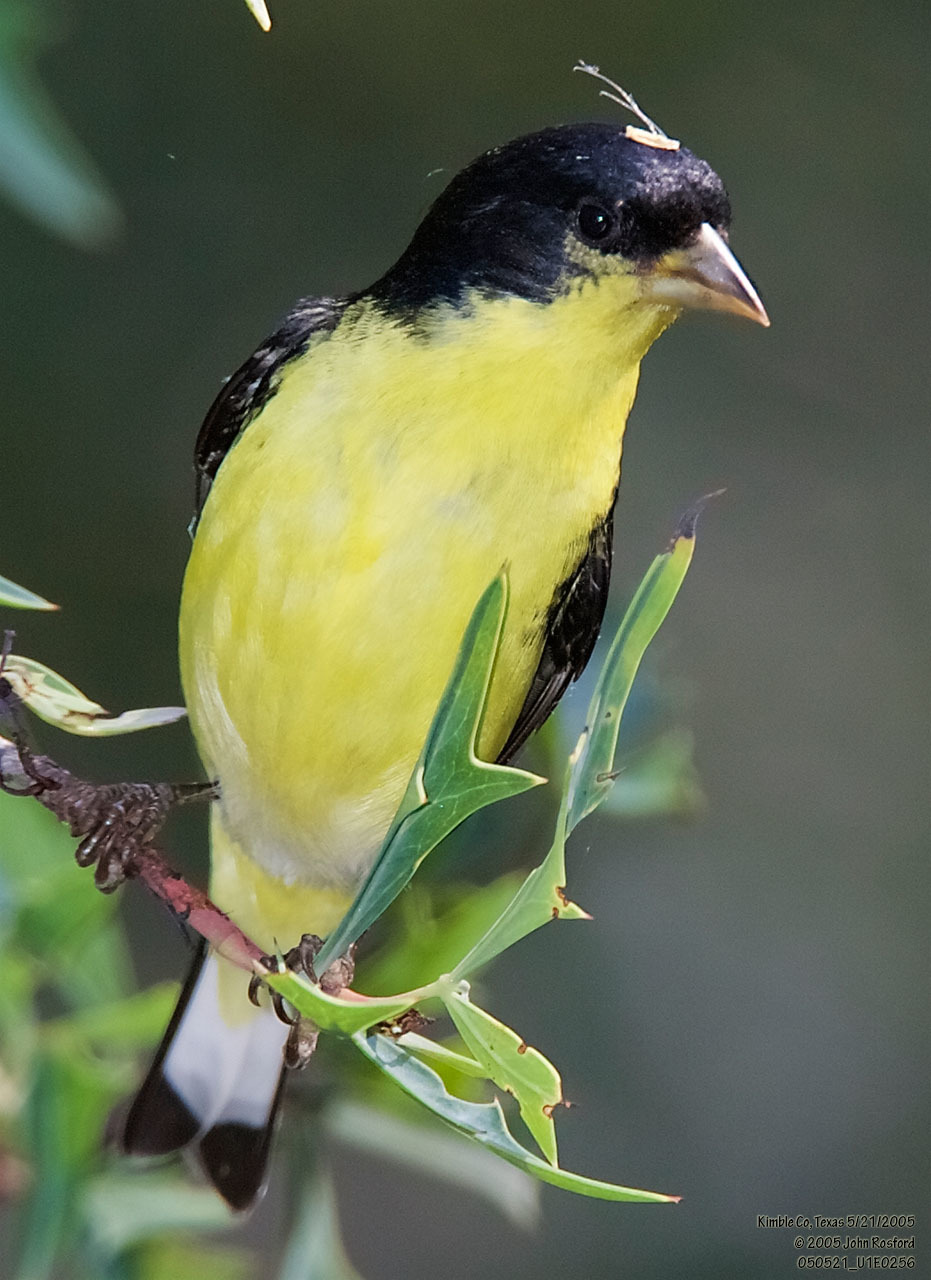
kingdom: Animalia
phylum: Chordata
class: Aves
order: Passeriformes
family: Fringillidae
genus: Spinus
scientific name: Spinus psaltria
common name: Lesser goldfinch
